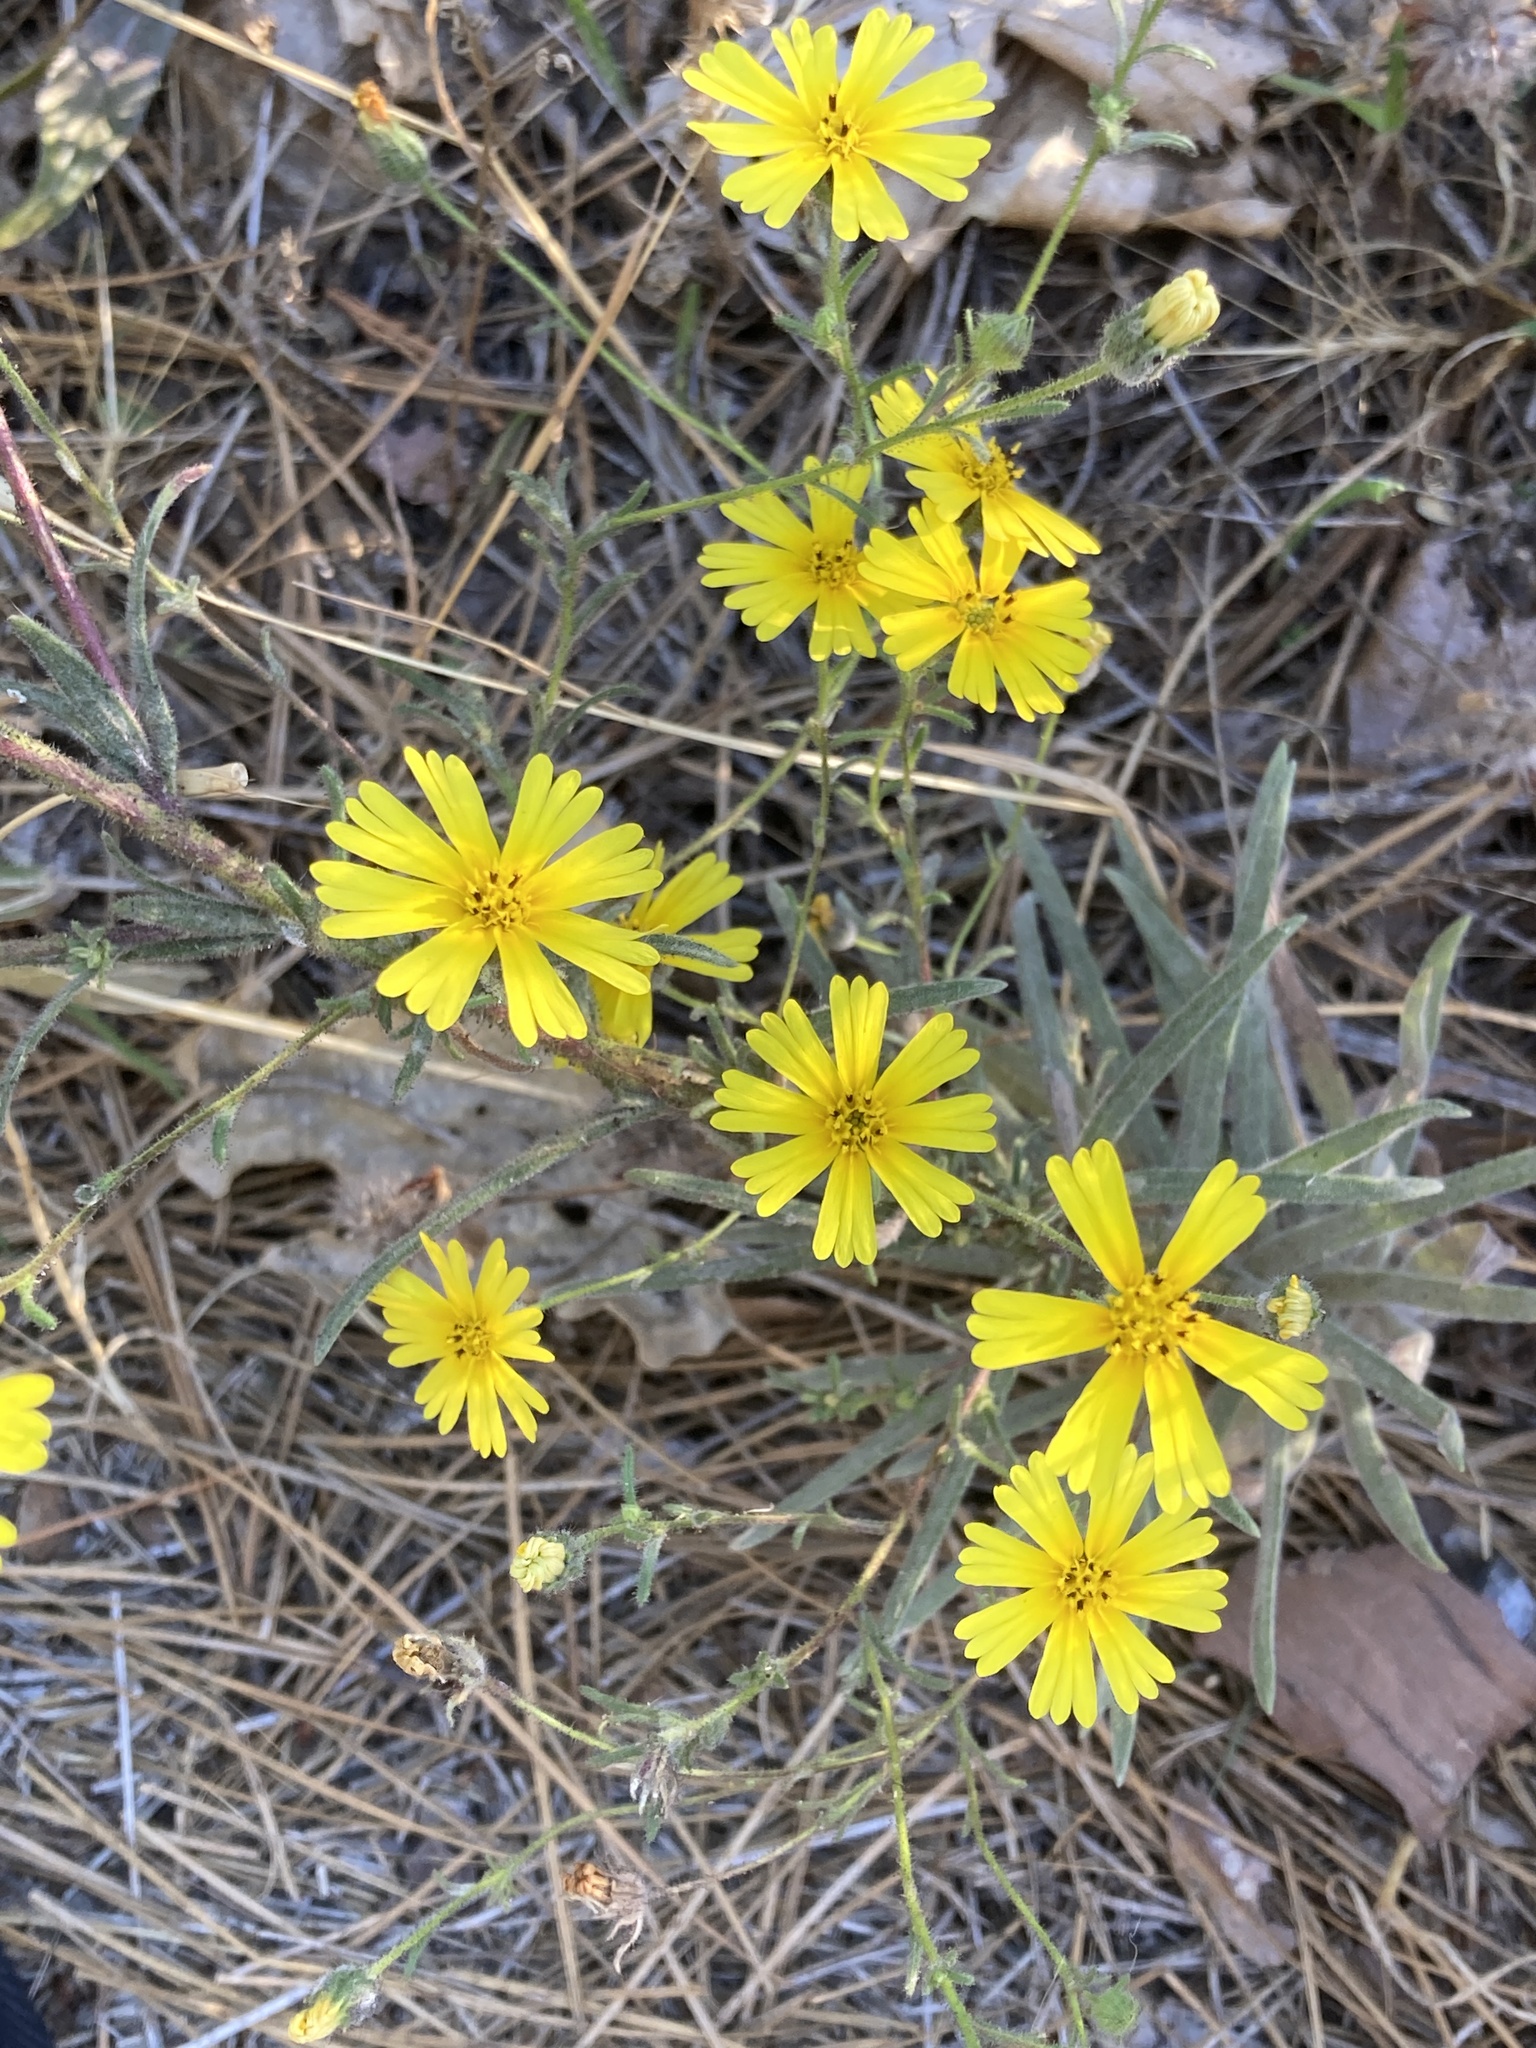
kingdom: Plantae
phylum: Tracheophyta
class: Magnoliopsida
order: Asterales
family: Asteraceae
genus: Madia
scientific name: Madia elegans
